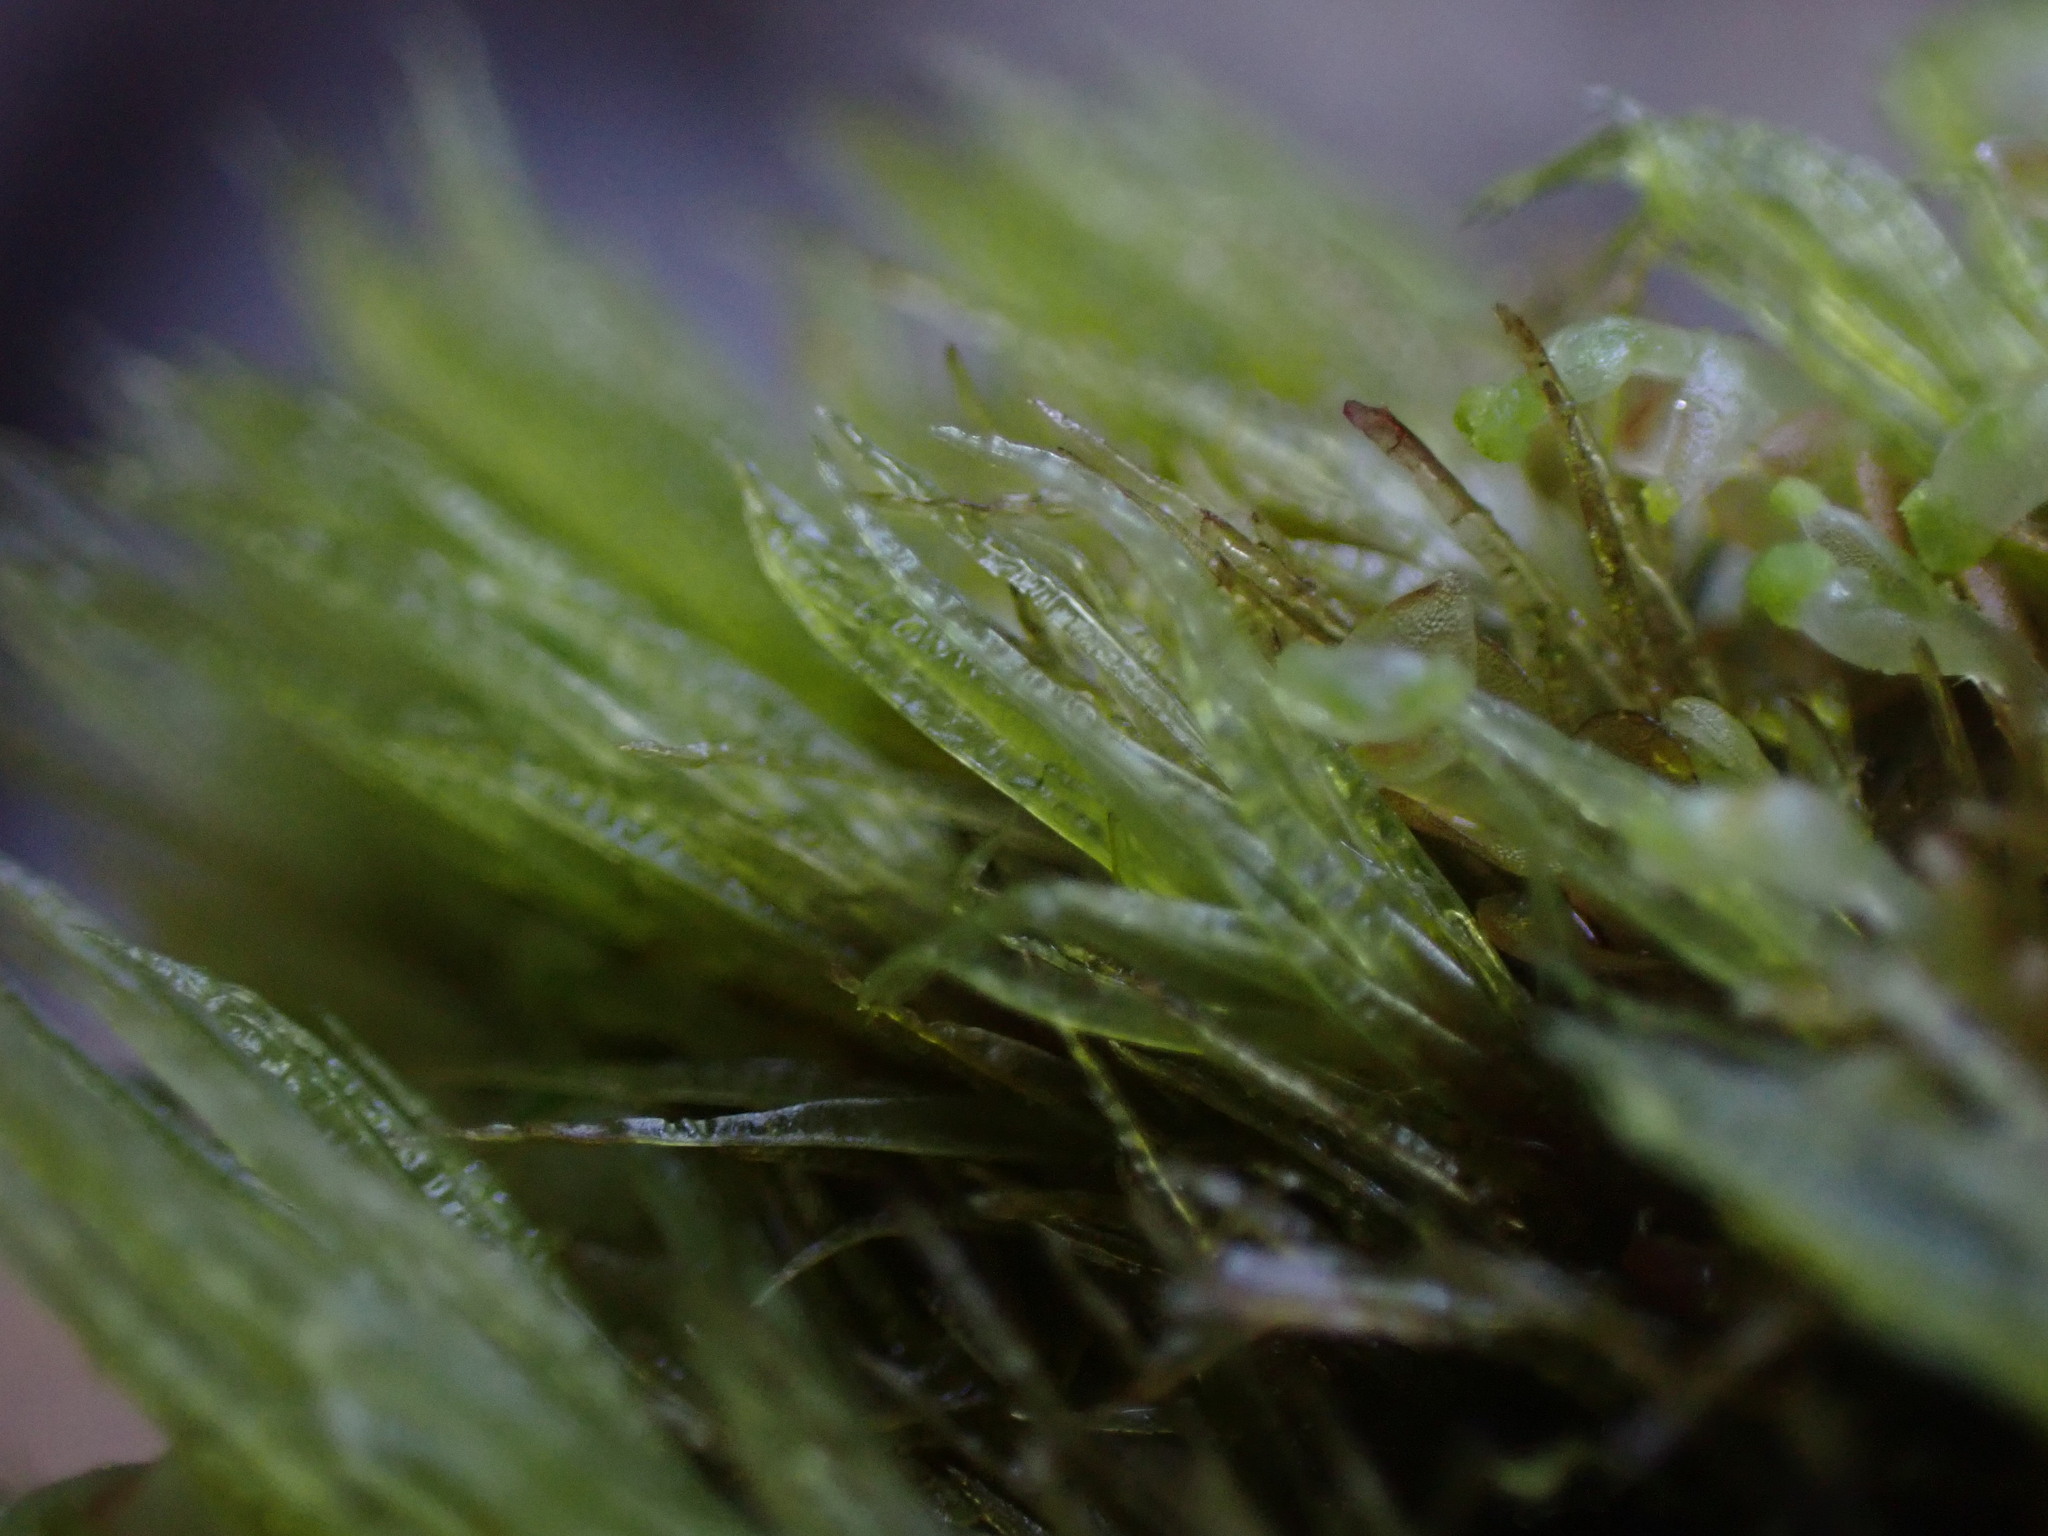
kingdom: Plantae
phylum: Bryophyta
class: Bryopsida
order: Dicranales
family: Dicranaceae
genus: Dicranum
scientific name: Dicranum undulatum
